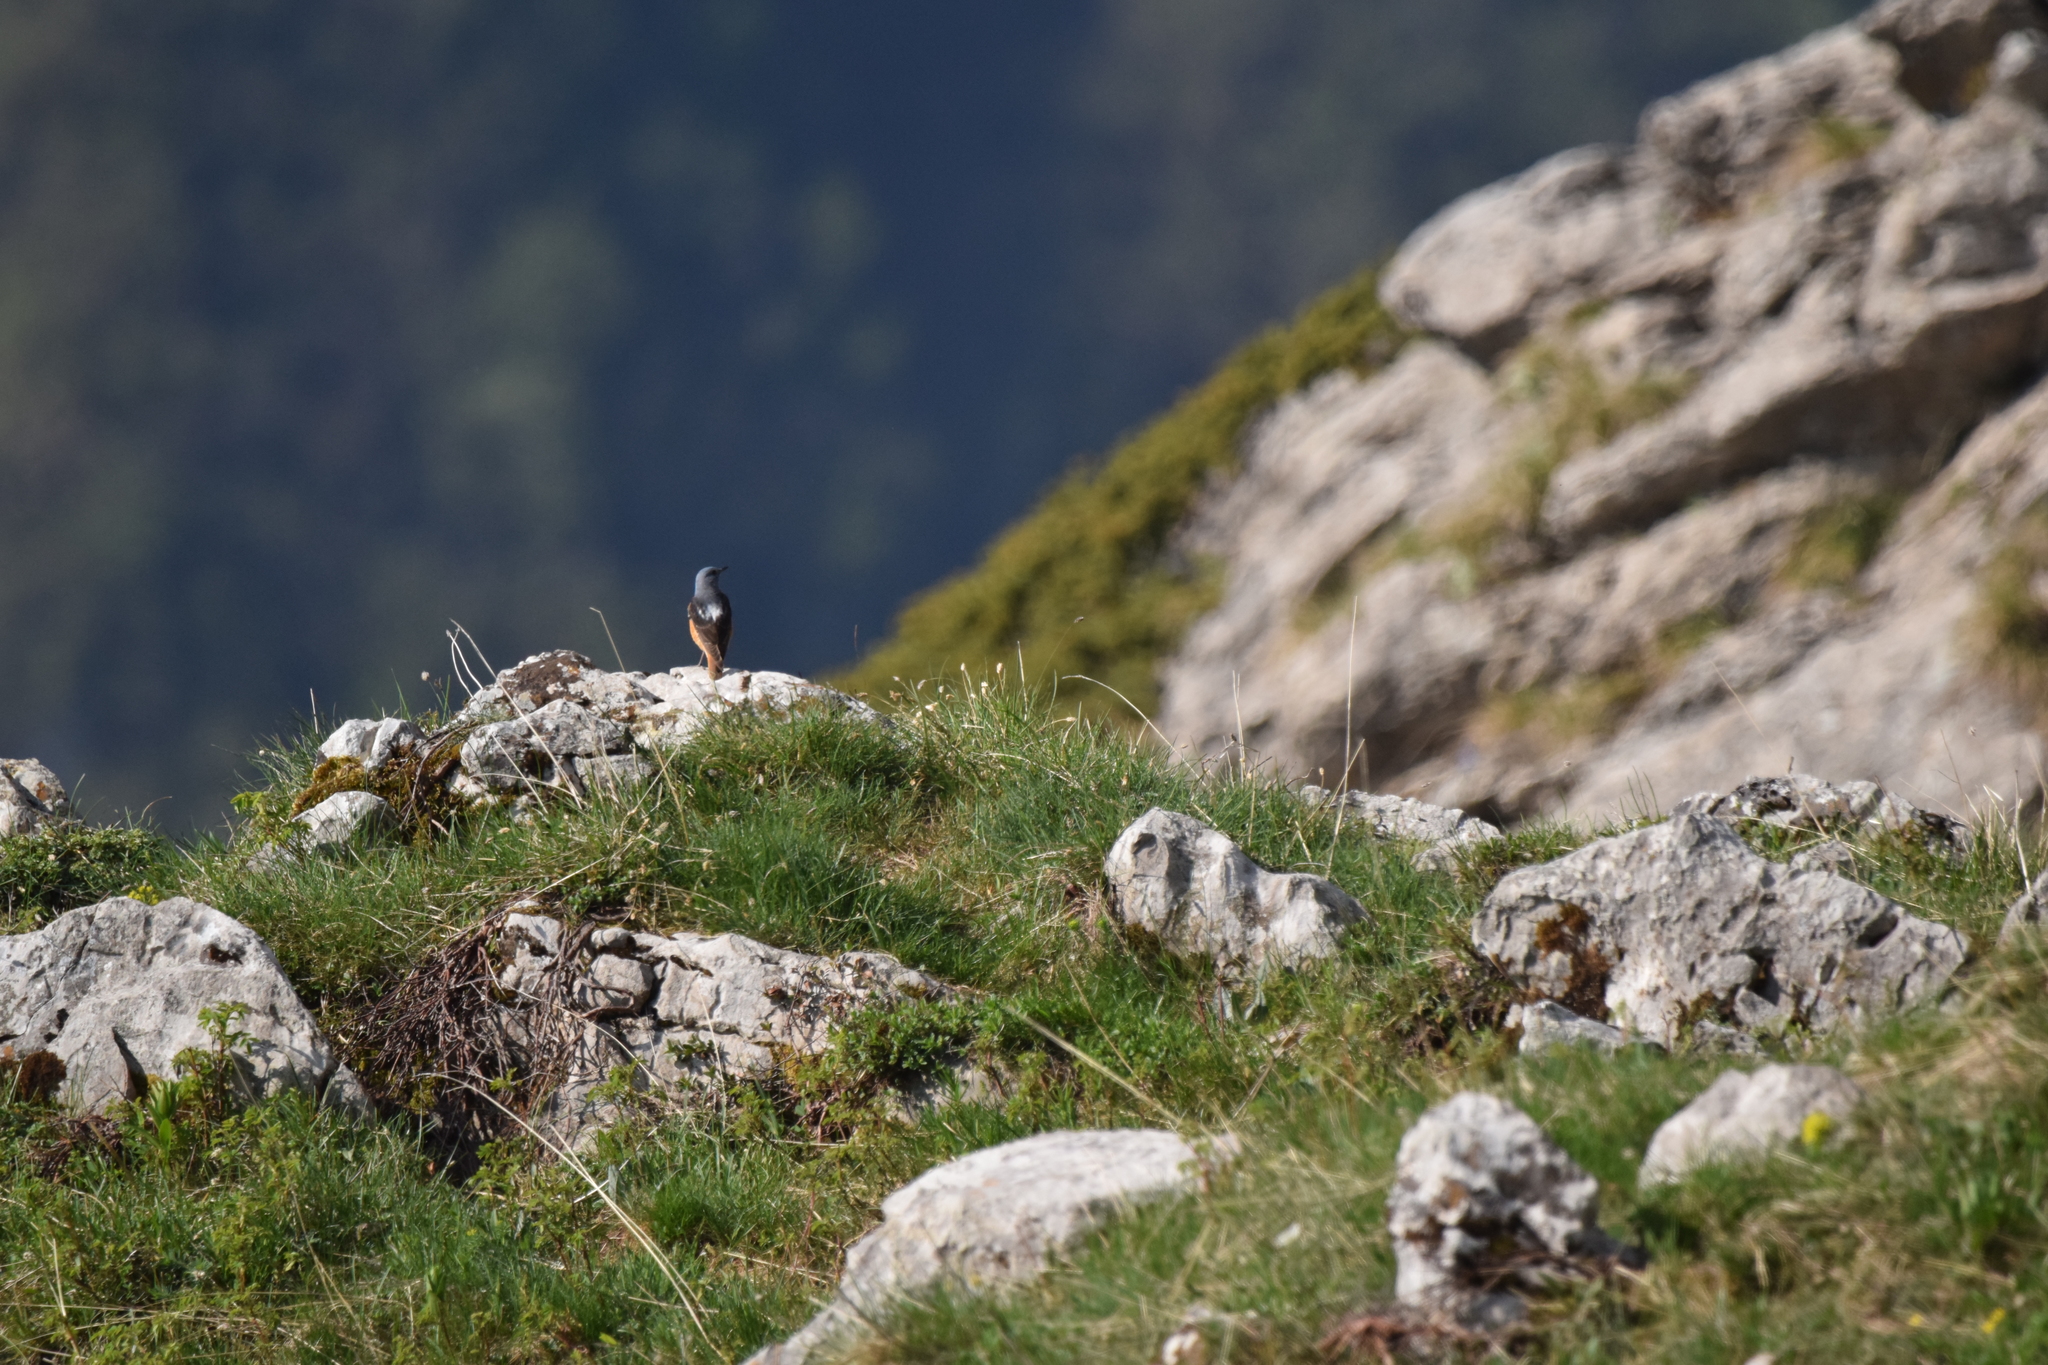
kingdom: Animalia
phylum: Chordata
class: Aves
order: Passeriformes
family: Muscicapidae
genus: Monticola
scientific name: Monticola saxatilis
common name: Rufous-tailed rock thrush
